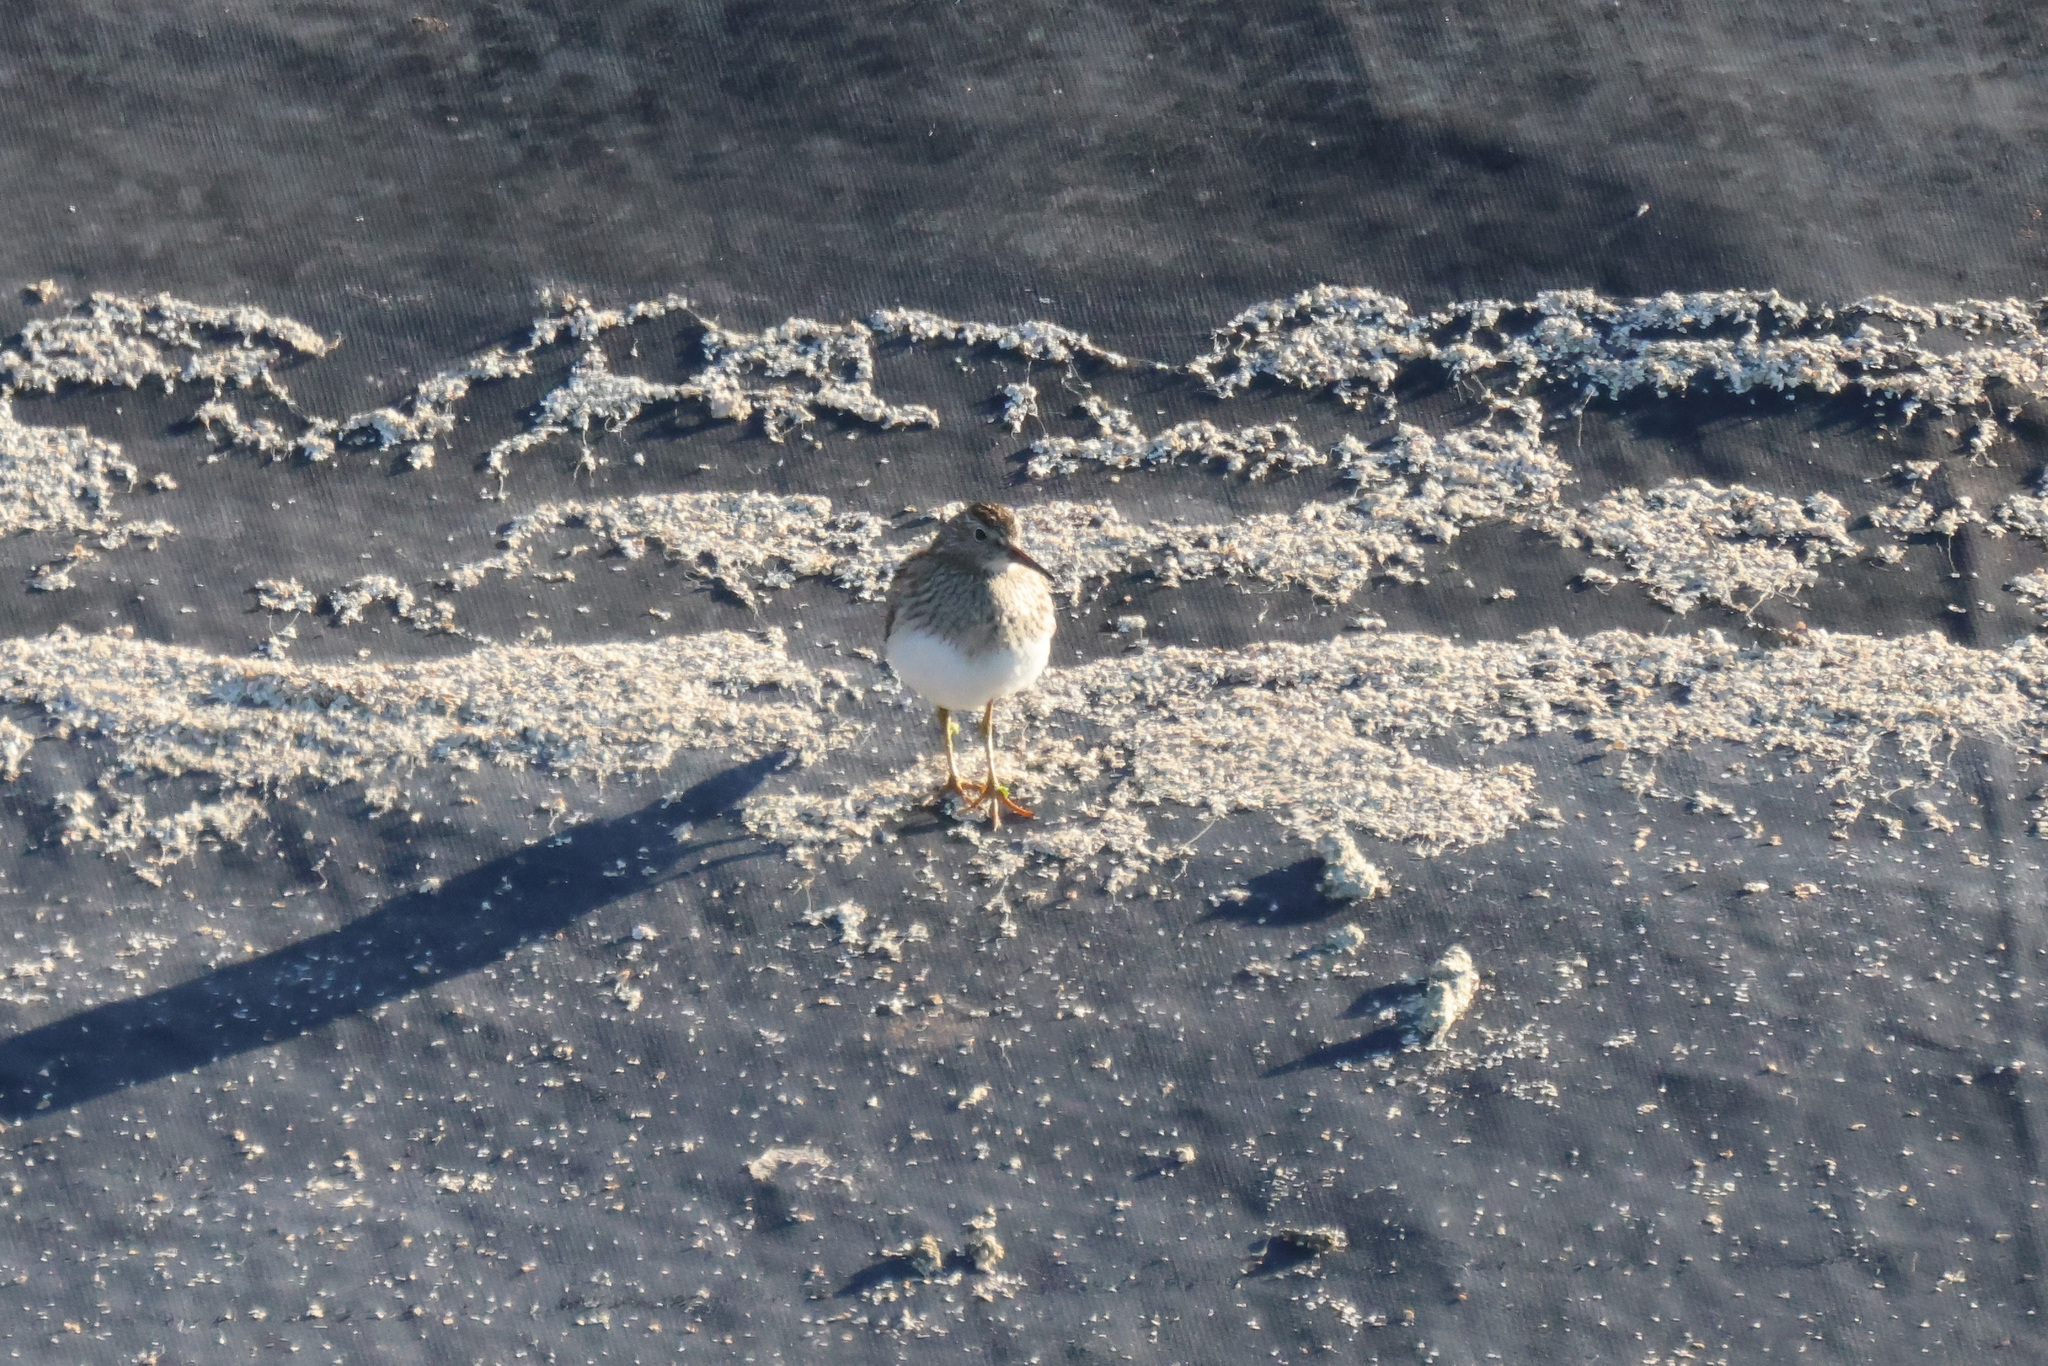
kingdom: Animalia
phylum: Chordata
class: Aves
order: Charadriiformes
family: Scolopacidae
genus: Calidris
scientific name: Calidris melanotos
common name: Pectoral sandpiper
